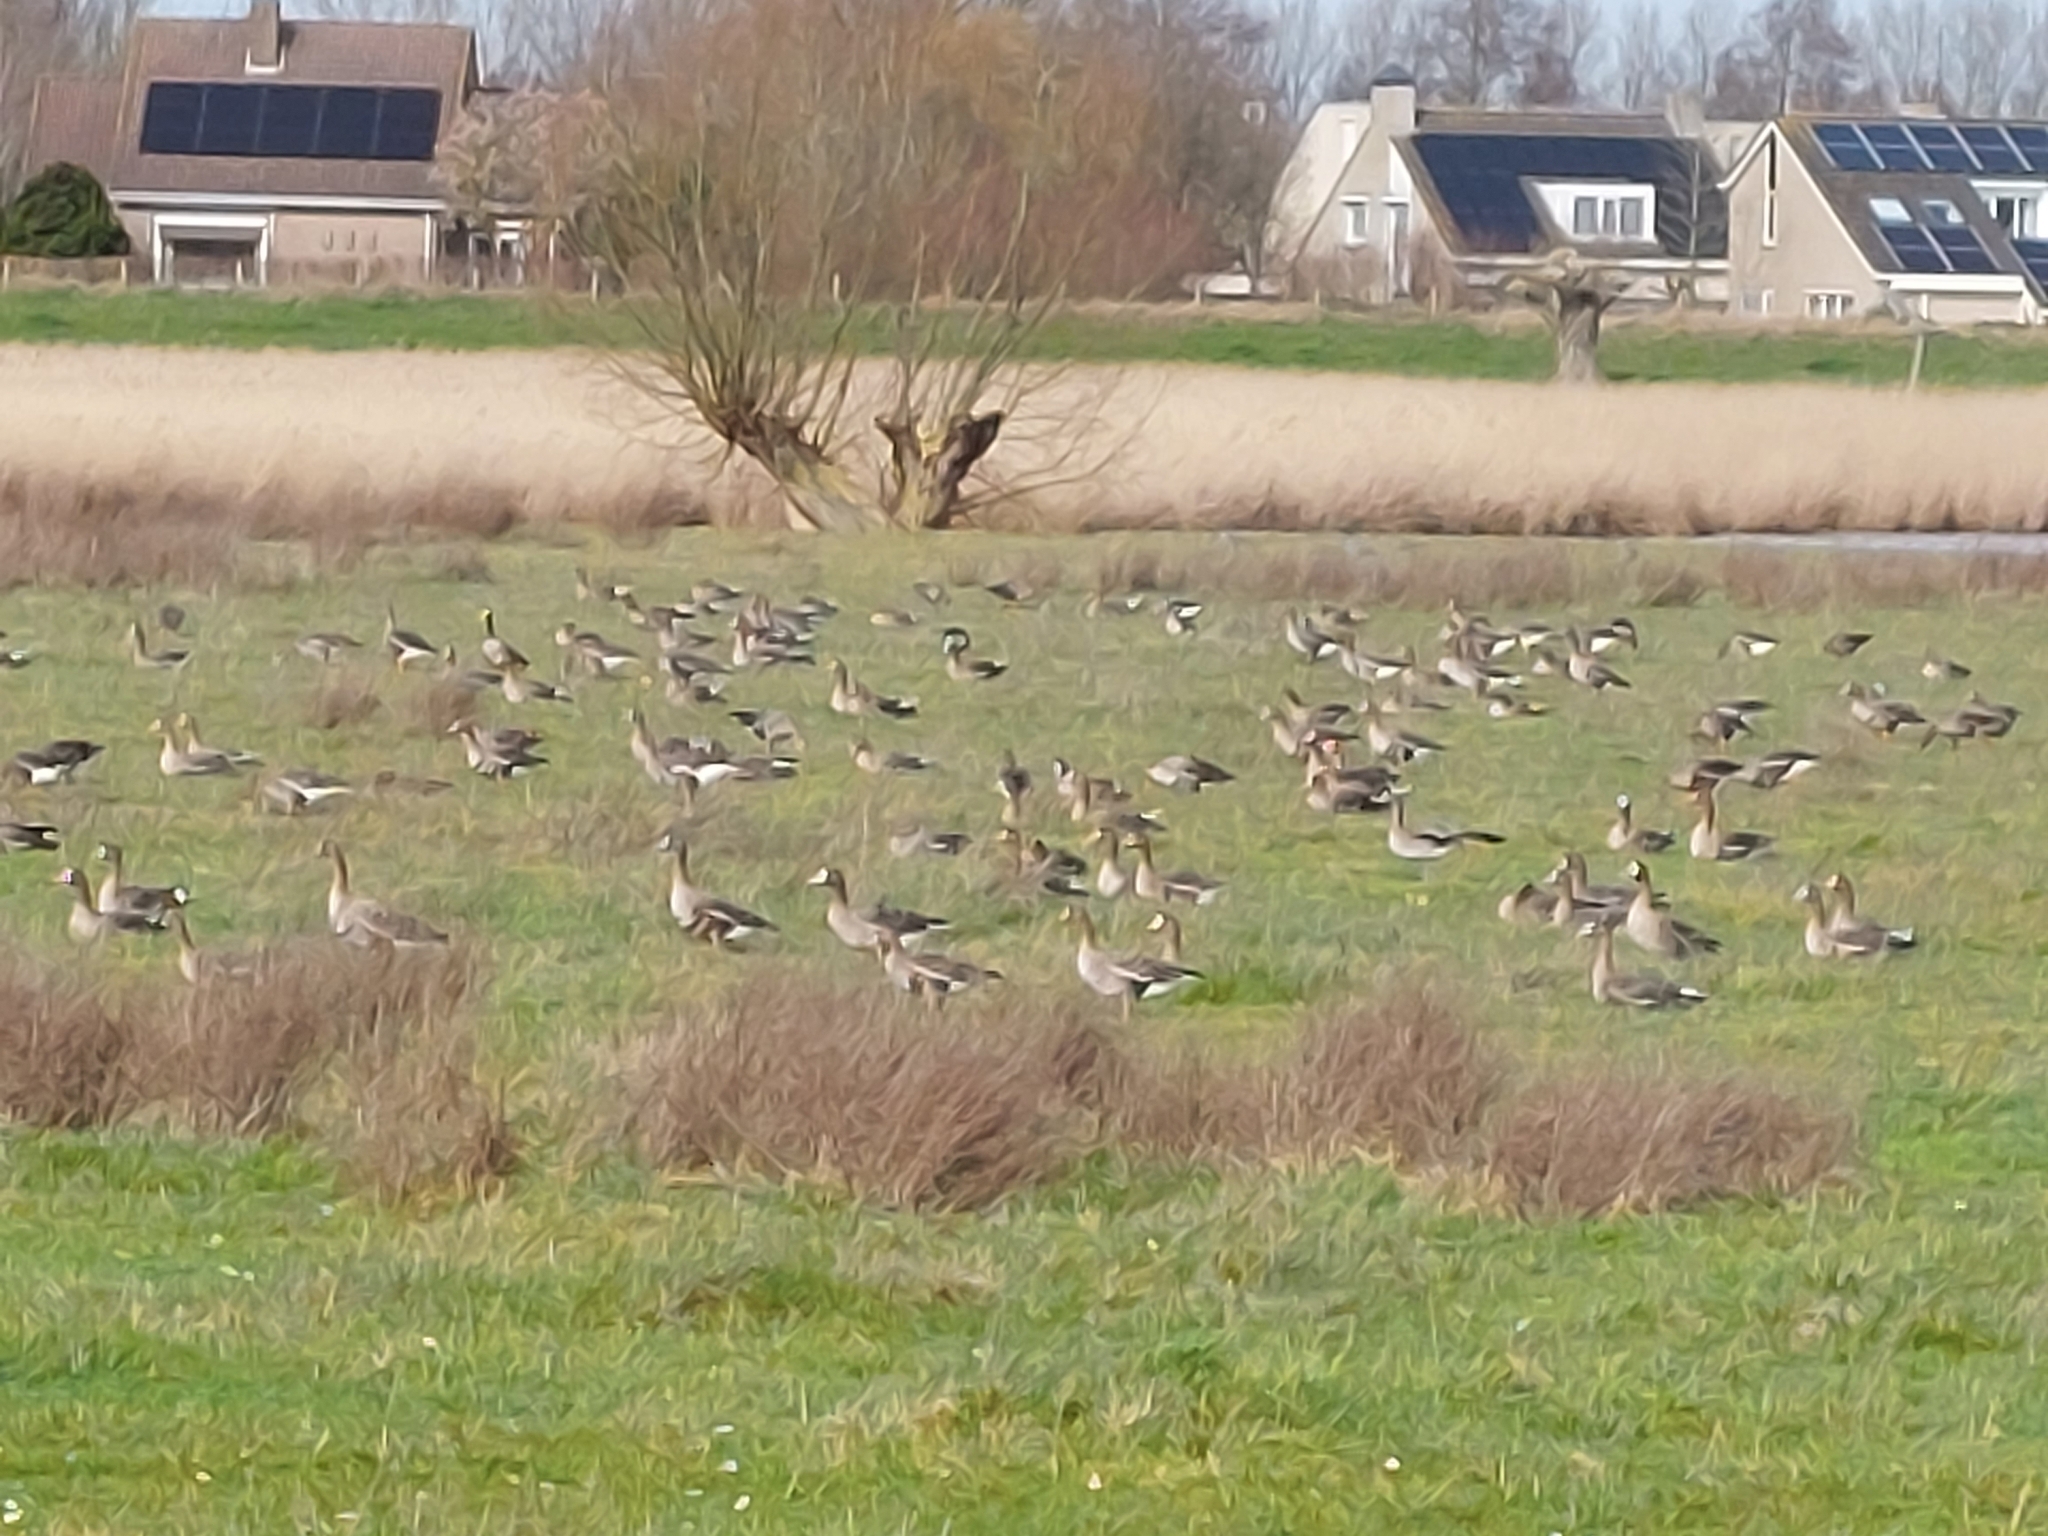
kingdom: Animalia
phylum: Chordata
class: Aves
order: Anseriformes
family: Anatidae
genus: Anser
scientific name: Anser albifrons
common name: Greater white-fronted goose
